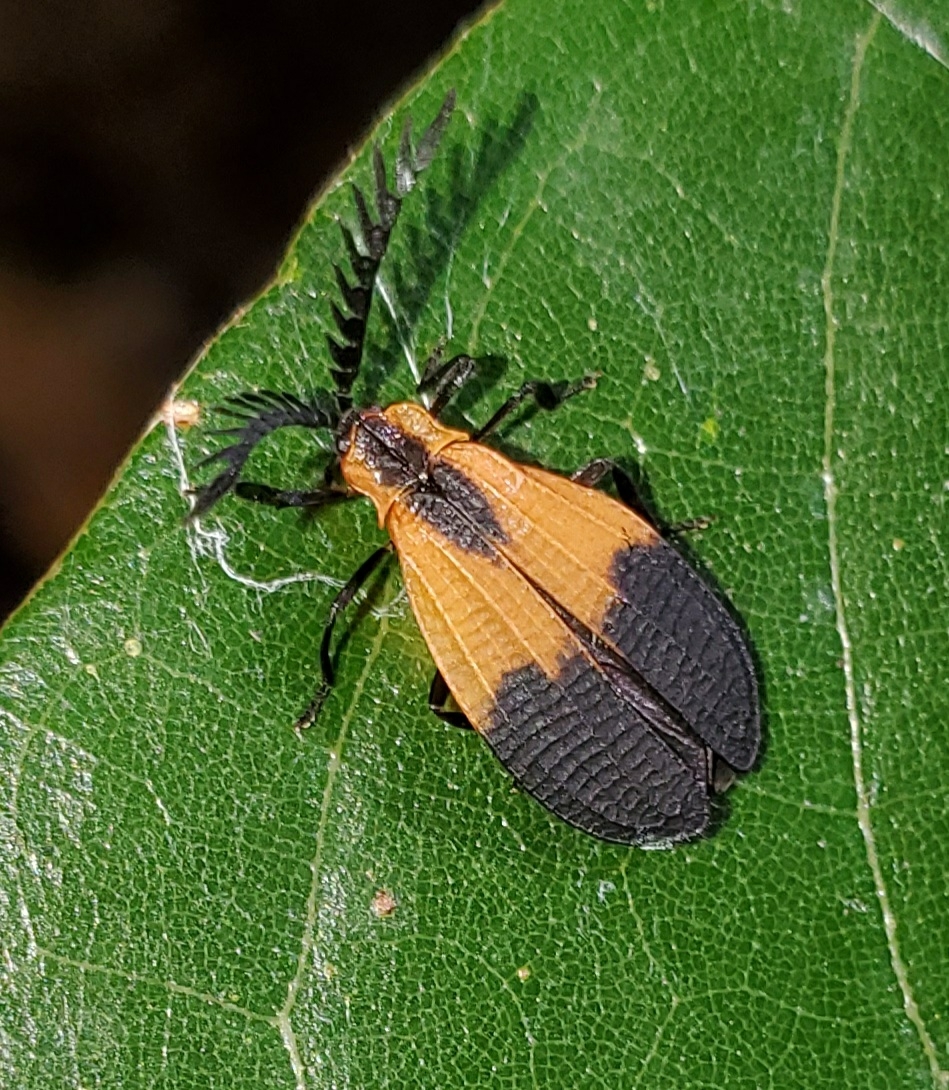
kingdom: Animalia
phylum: Arthropoda
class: Insecta
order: Coleoptera
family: Lycidae
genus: Caenia
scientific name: Caenia dimidiata
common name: Terminal net-winged beetle
